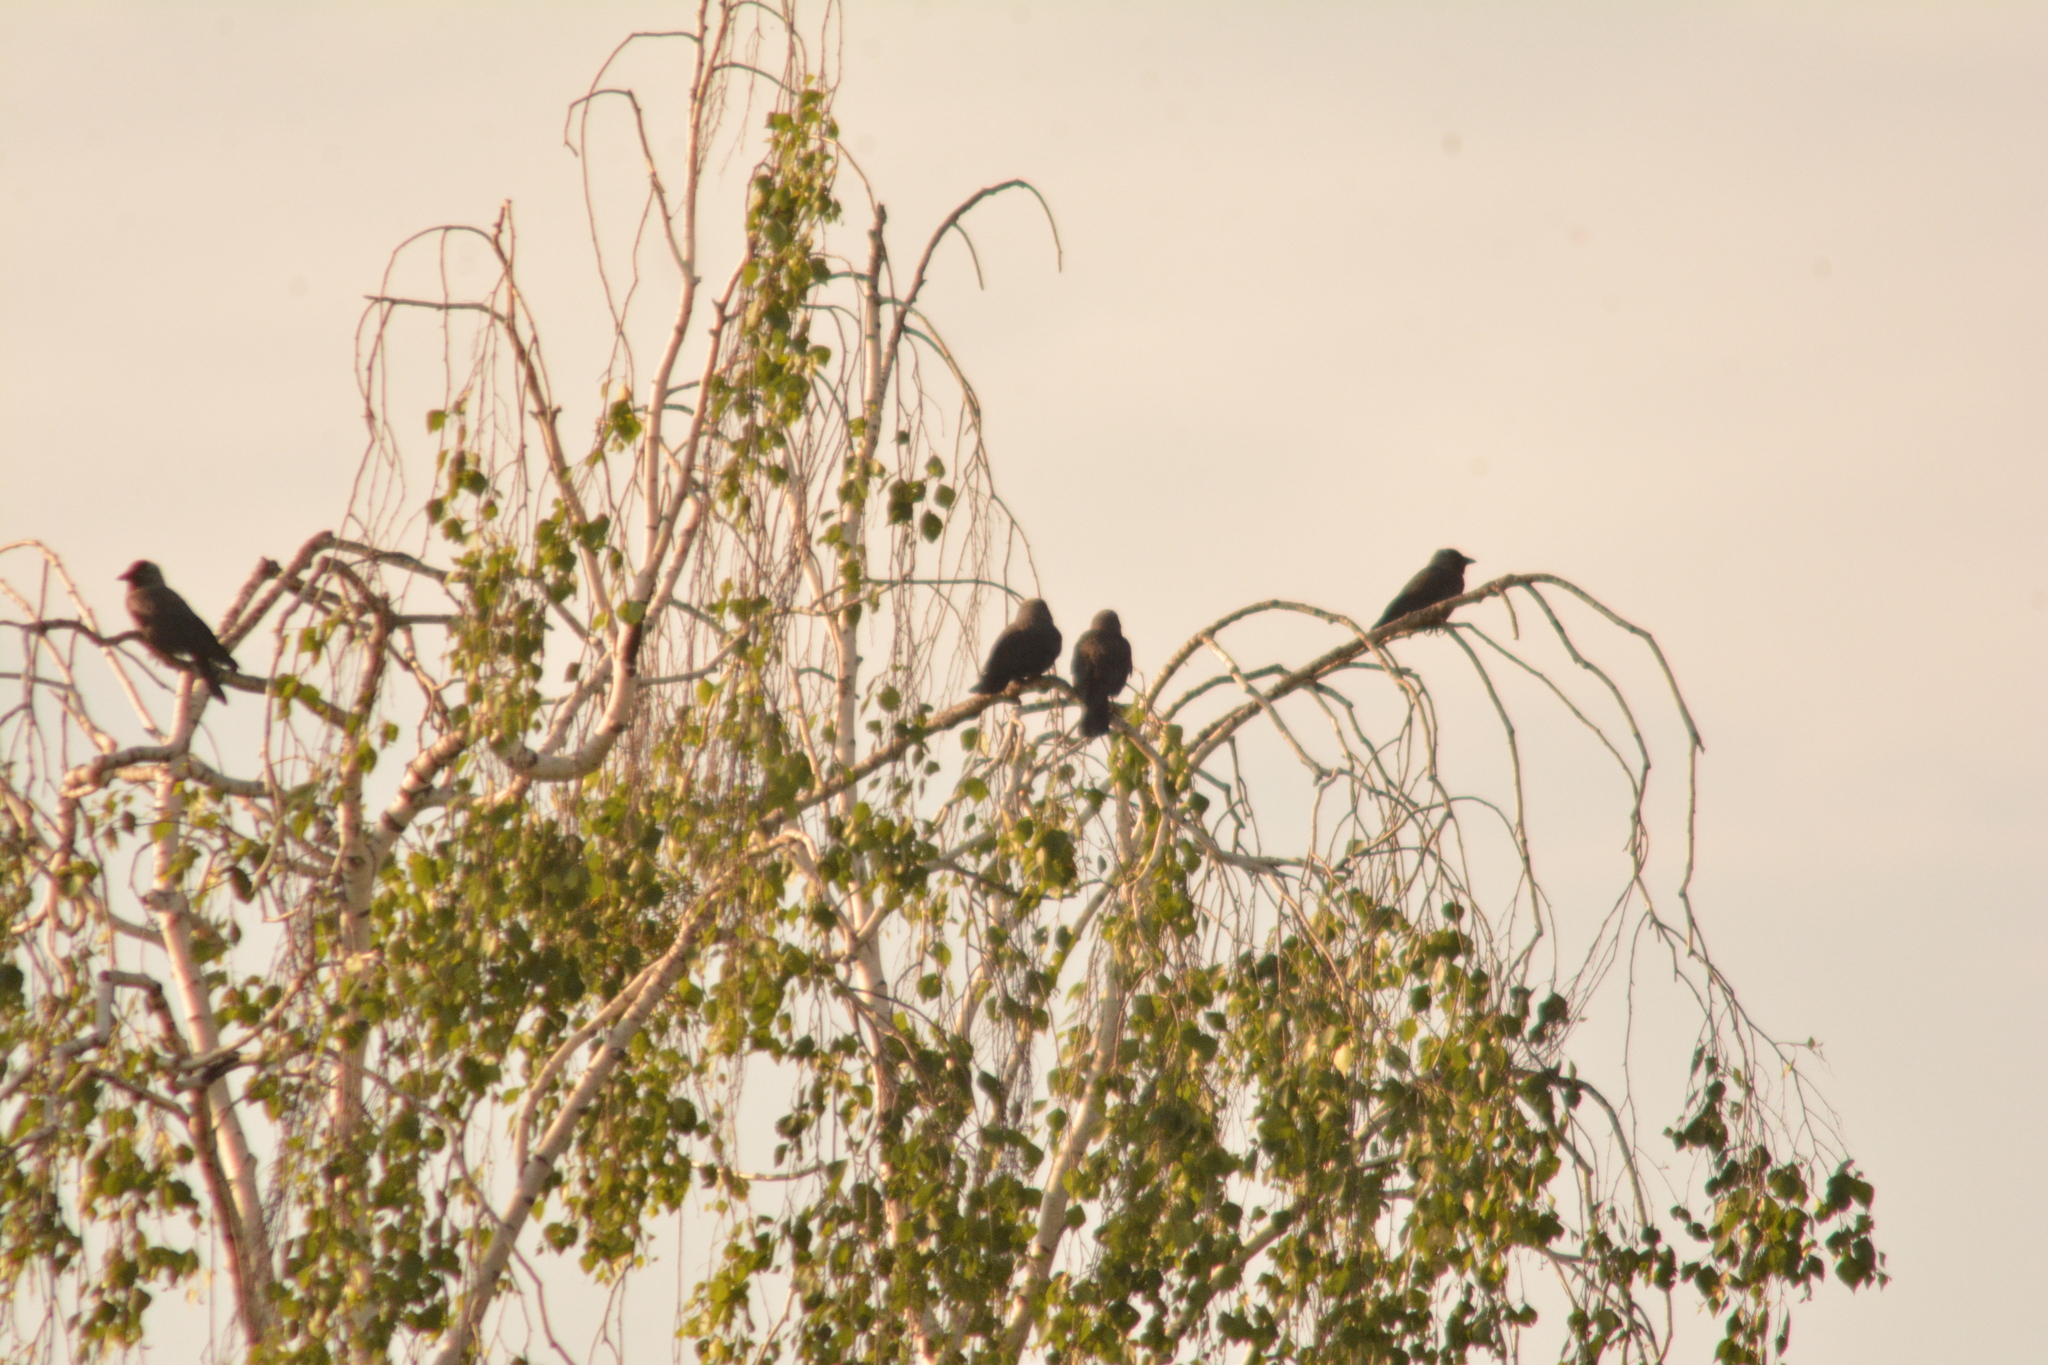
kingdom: Animalia
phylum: Chordata
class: Aves
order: Passeriformes
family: Corvidae
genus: Coloeus
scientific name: Coloeus monedula
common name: Western jackdaw
